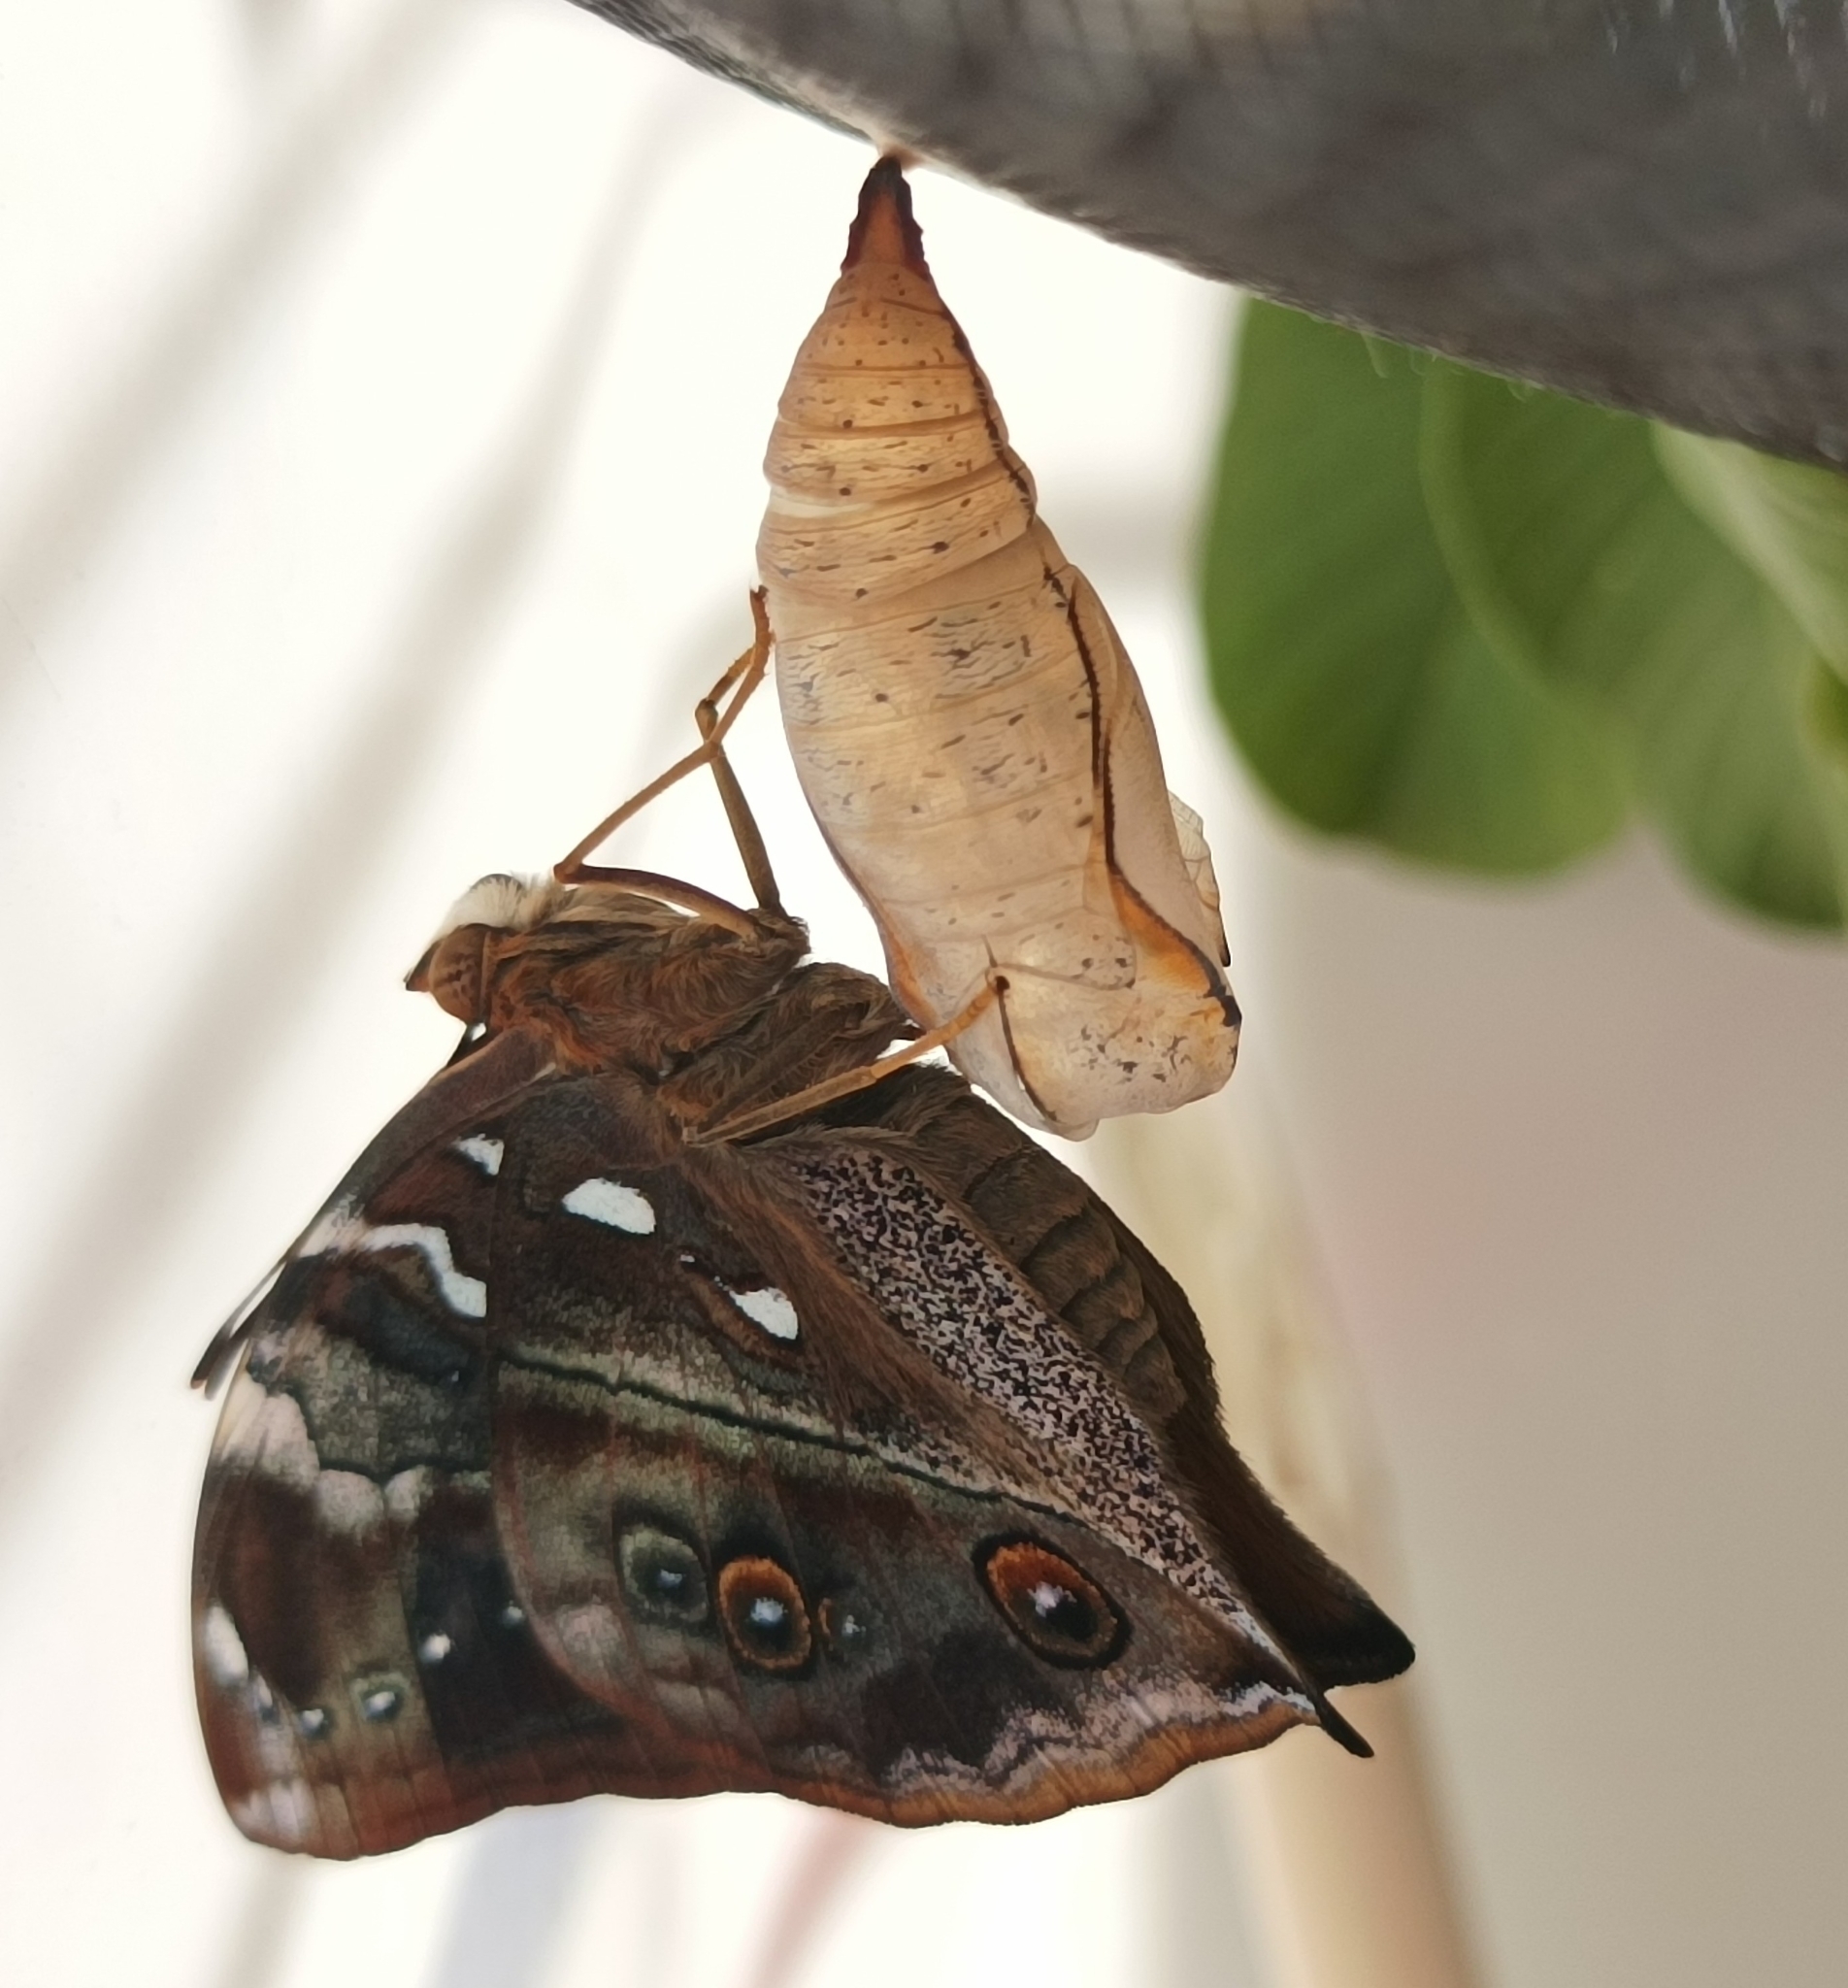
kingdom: Animalia
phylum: Arthropoda
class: Insecta
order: Lepidoptera
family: Nymphalidae
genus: Doleschallia
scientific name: Doleschallia browni
